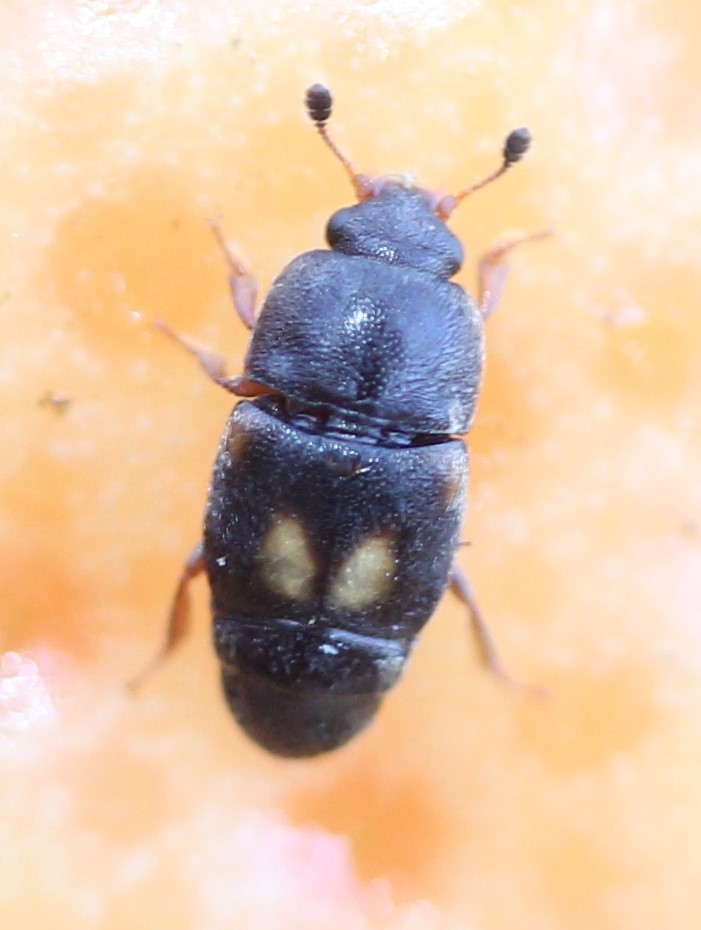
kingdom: Animalia
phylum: Arthropoda
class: Insecta
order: Coleoptera
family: Nitidulidae
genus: Carpophilus
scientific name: Carpophilus hemipterus
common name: Dried fruit beetle
